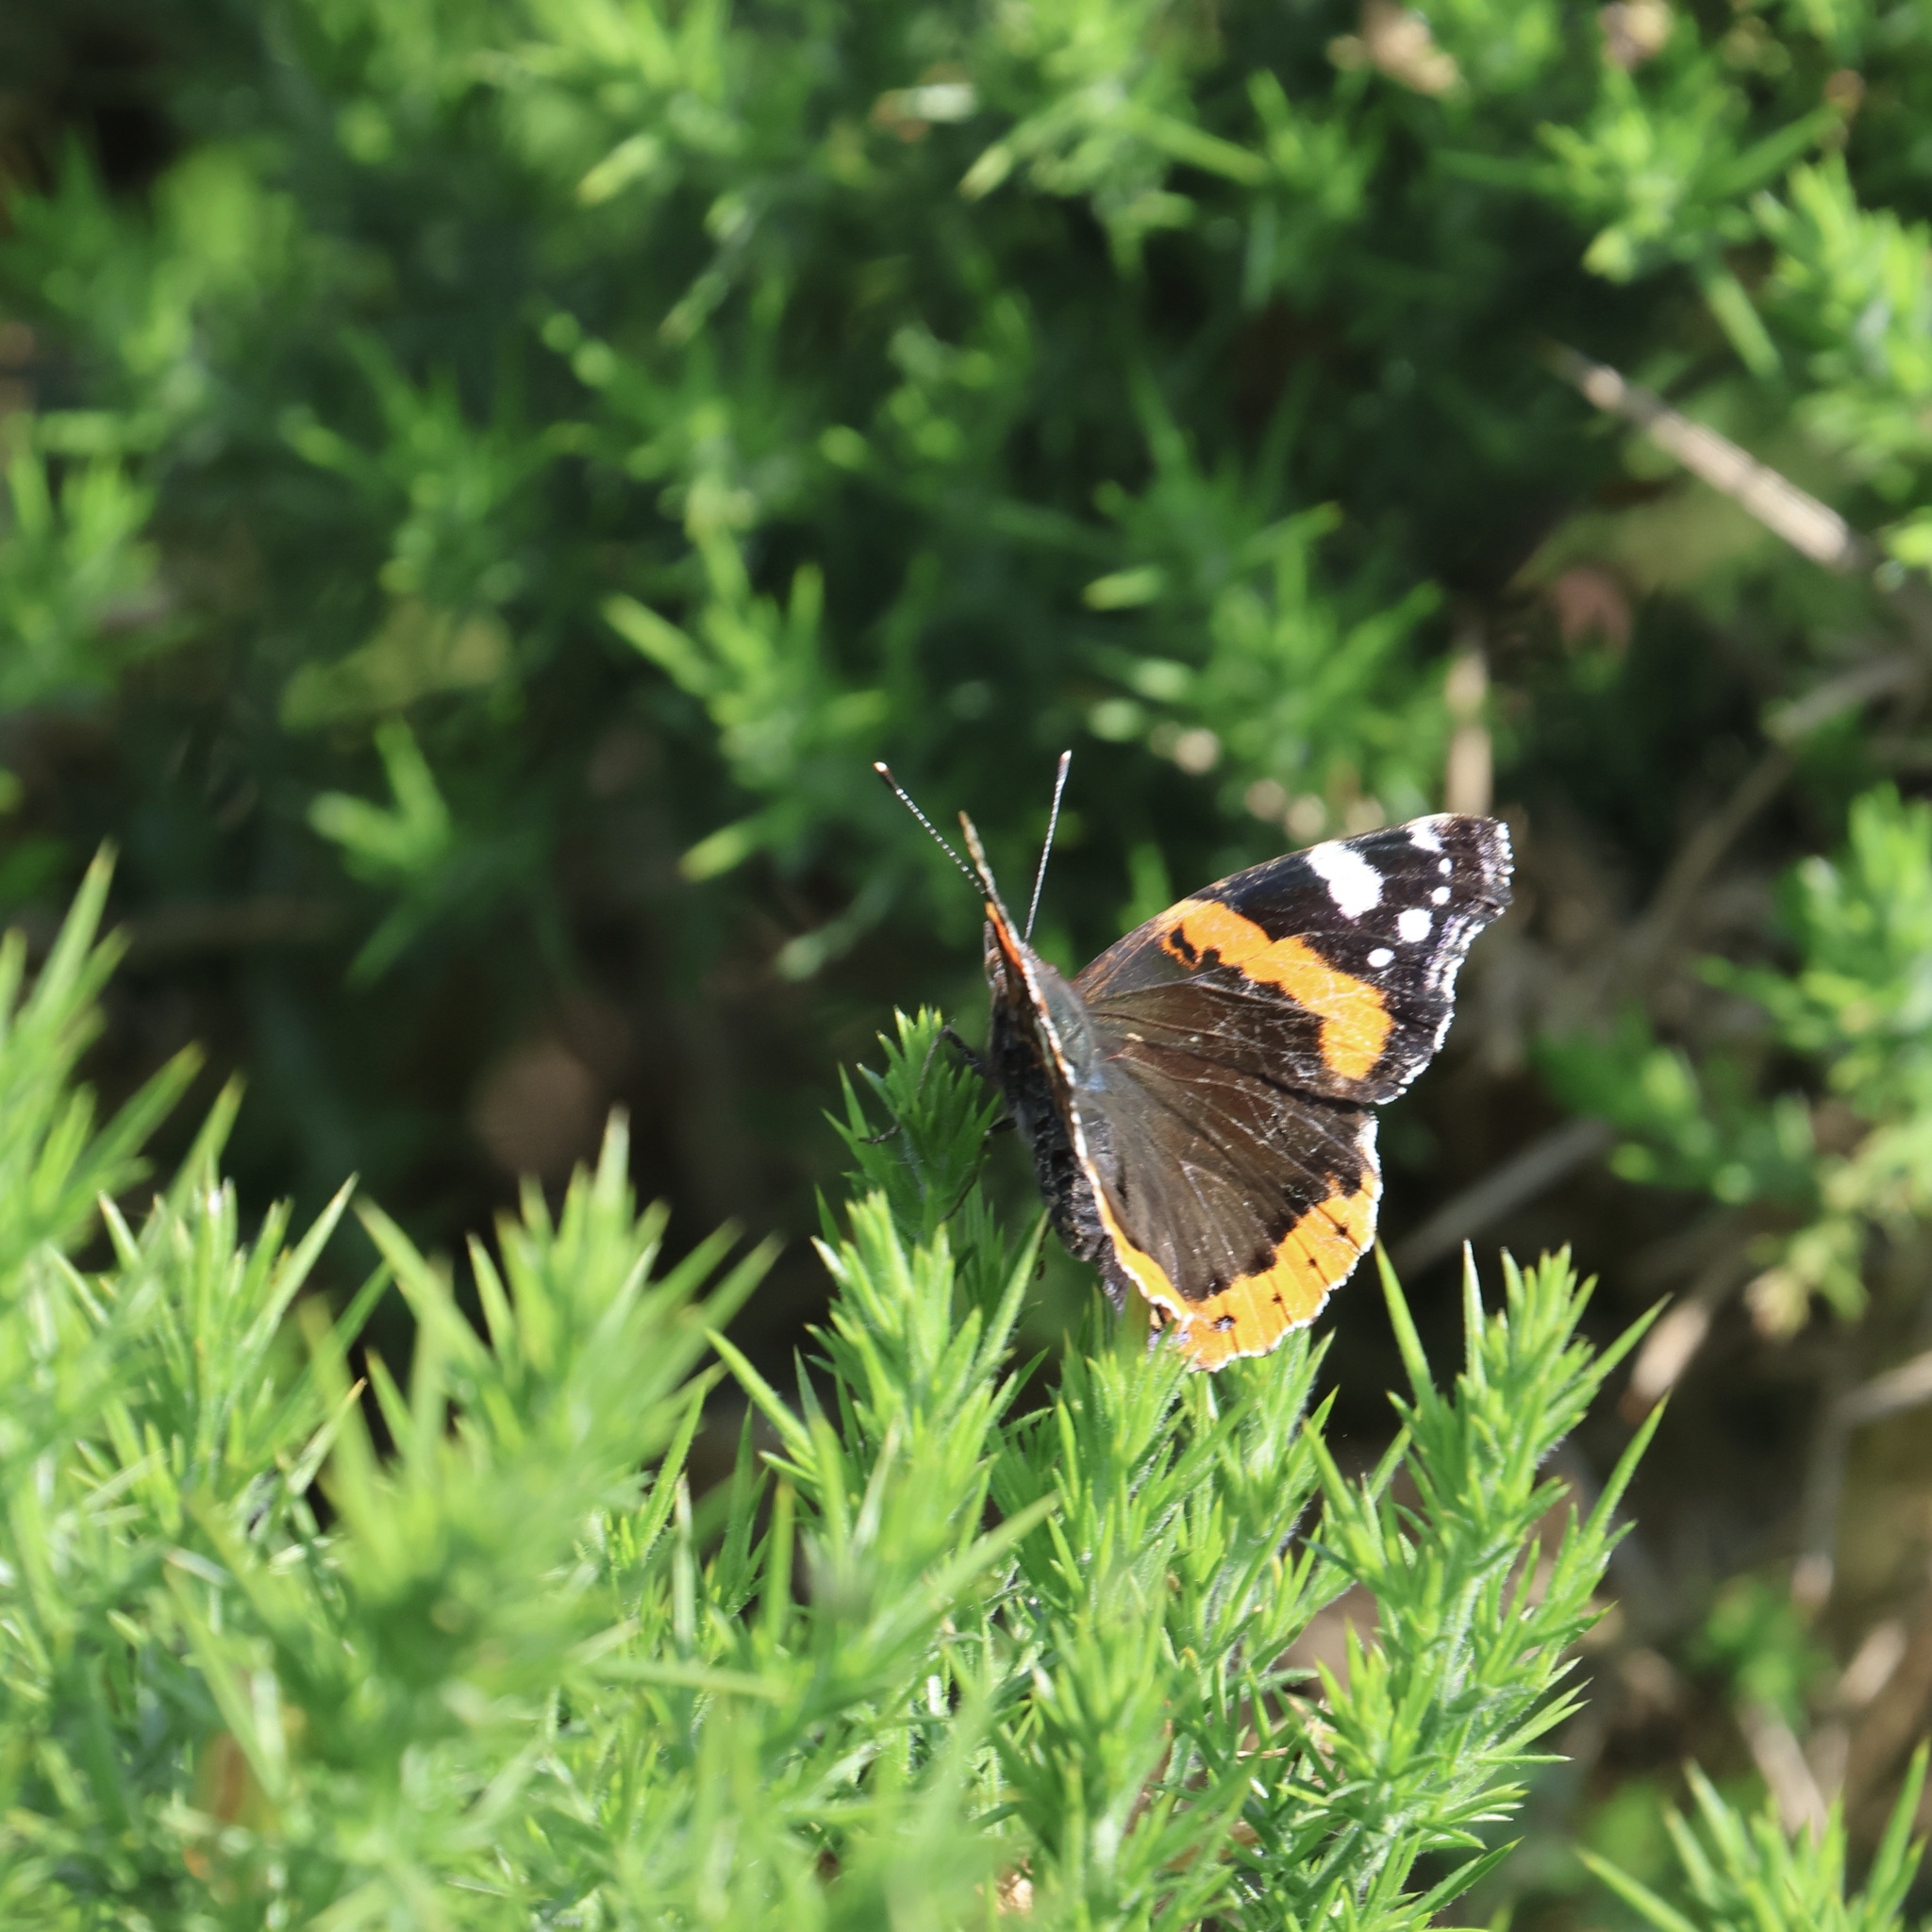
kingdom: Animalia
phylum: Arthropoda
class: Insecta
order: Lepidoptera
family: Nymphalidae
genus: Vanessa
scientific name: Vanessa atalanta
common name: Red admiral
